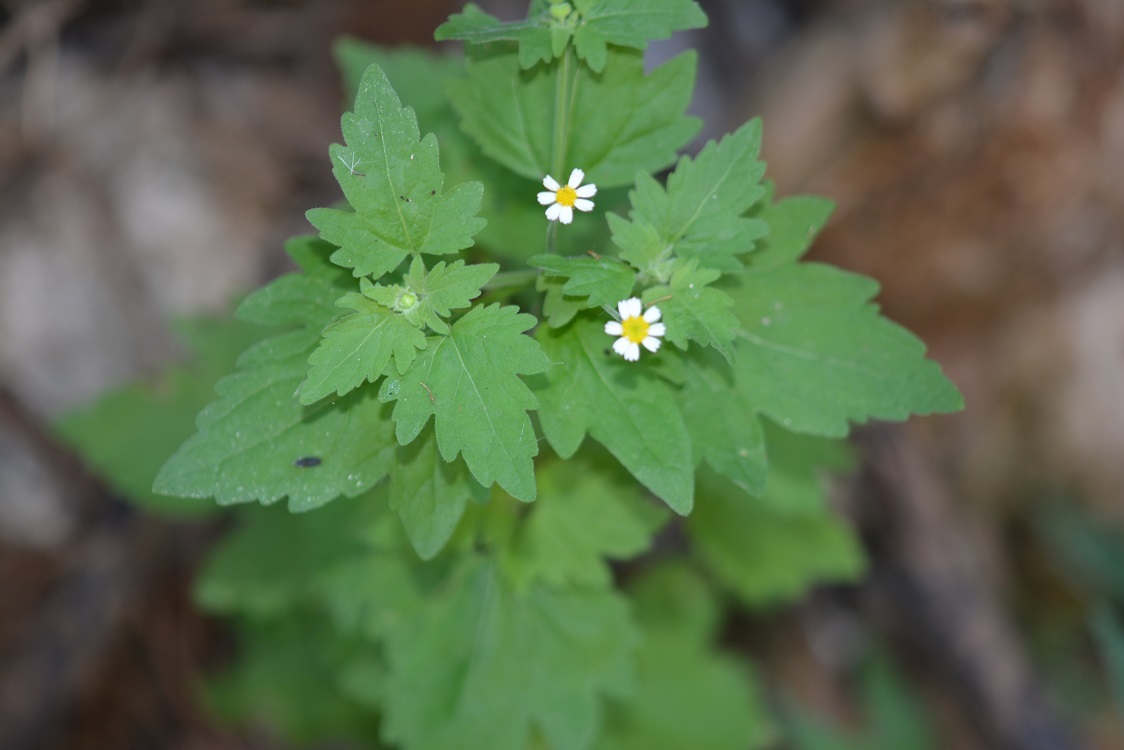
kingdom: Plantae
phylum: Tracheophyta
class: Magnoliopsida
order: Asterales
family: Asteraceae
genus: Galinsogeopsis
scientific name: Galinsogeopsis spilanthoides
